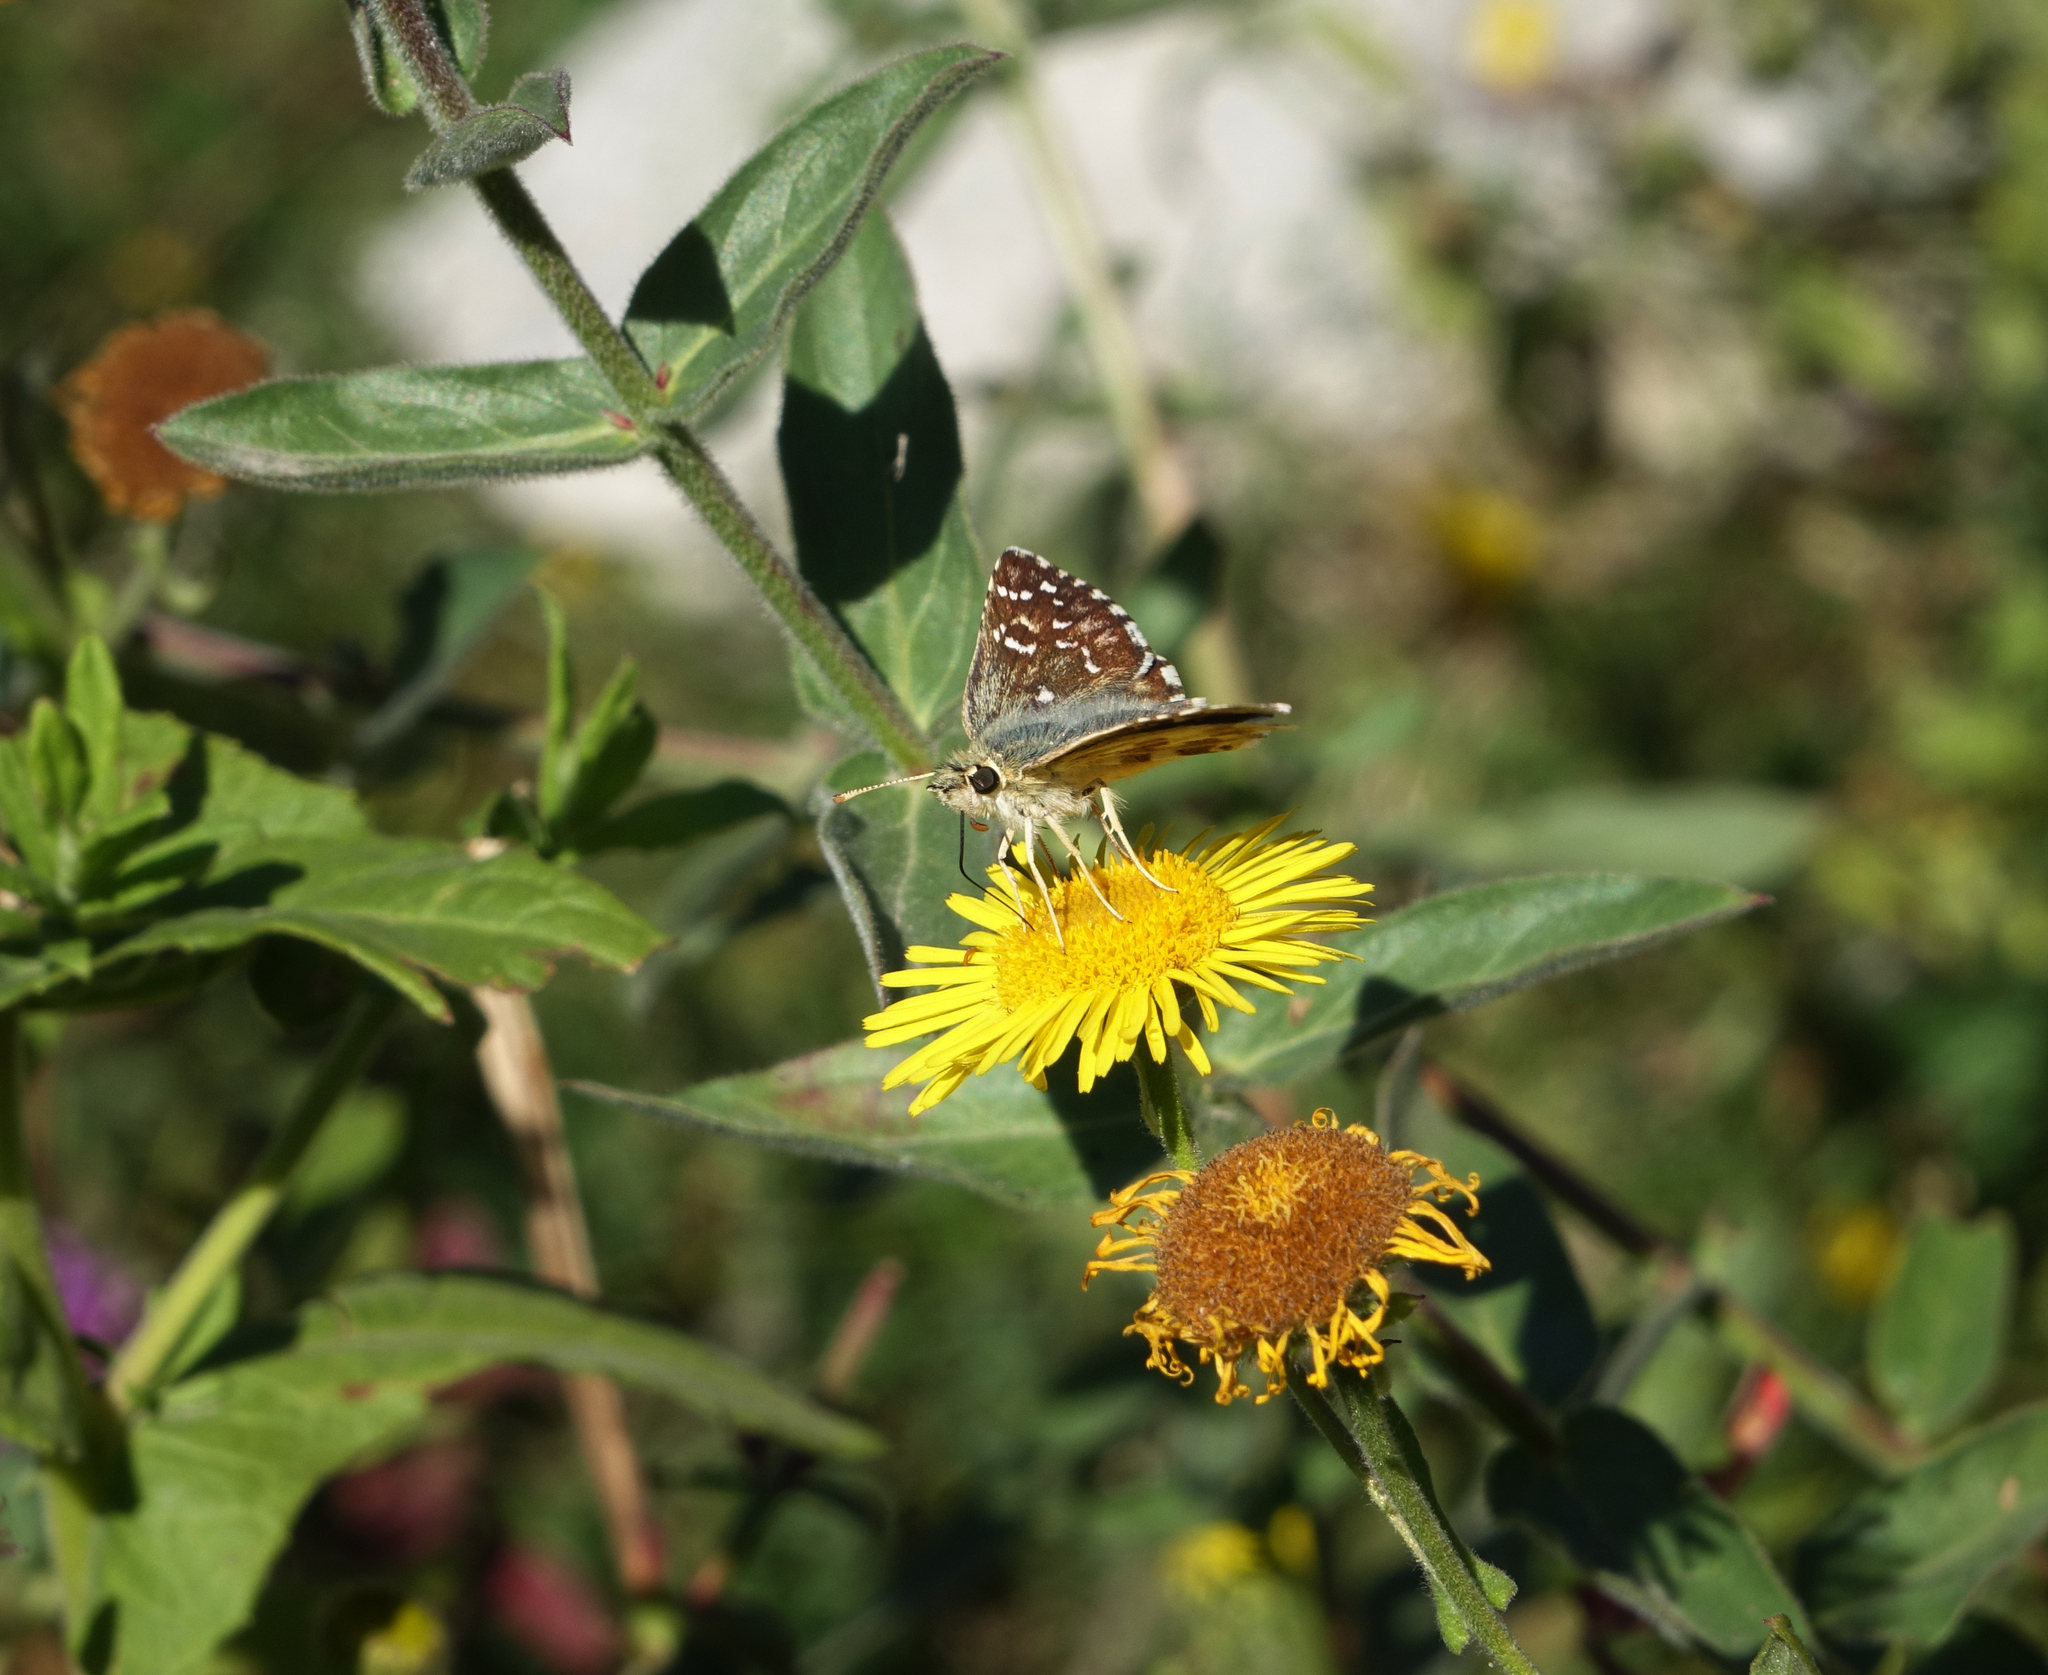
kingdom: Plantae
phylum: Tracheophyta
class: Magnoliopsida
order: Asterales
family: Asteraceae
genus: Pentanema
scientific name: Pentanema britannicum
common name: British elecampane
